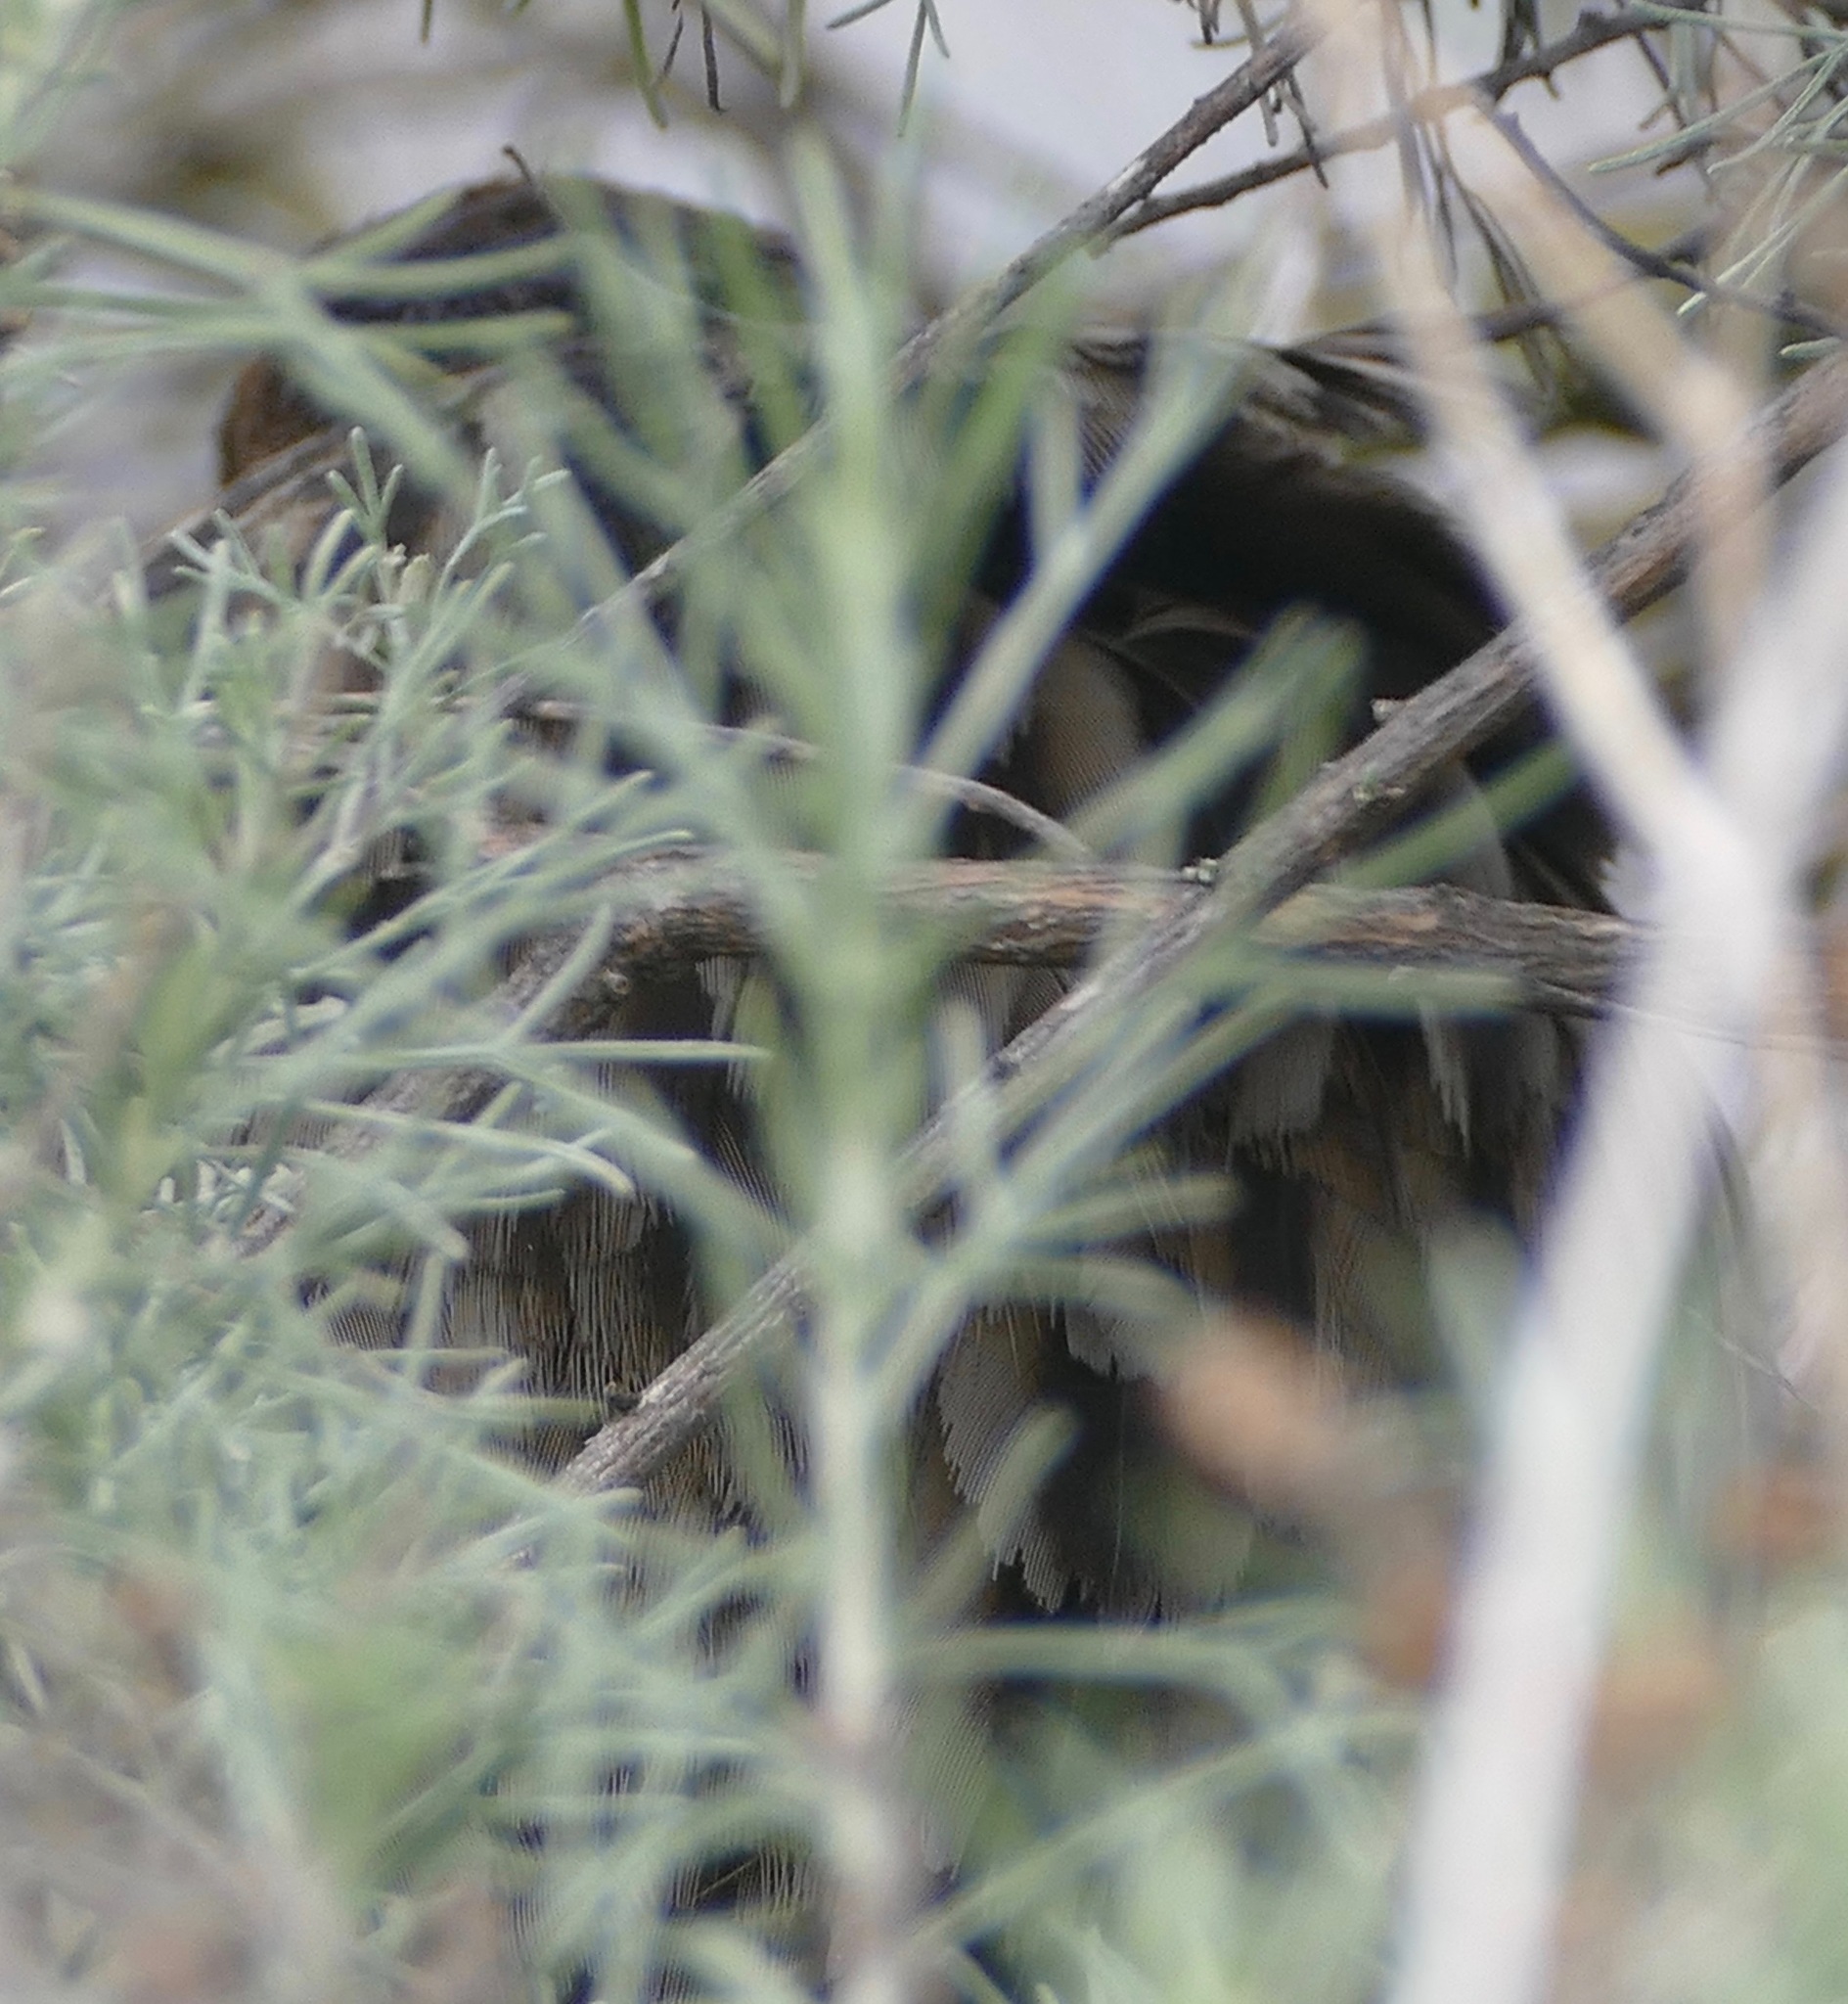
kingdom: Animalia
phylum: Chordata
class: Aves
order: Gruiformes
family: Rallidae
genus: Rallus
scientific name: Rallus obsoletus
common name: Ridgway's rail
